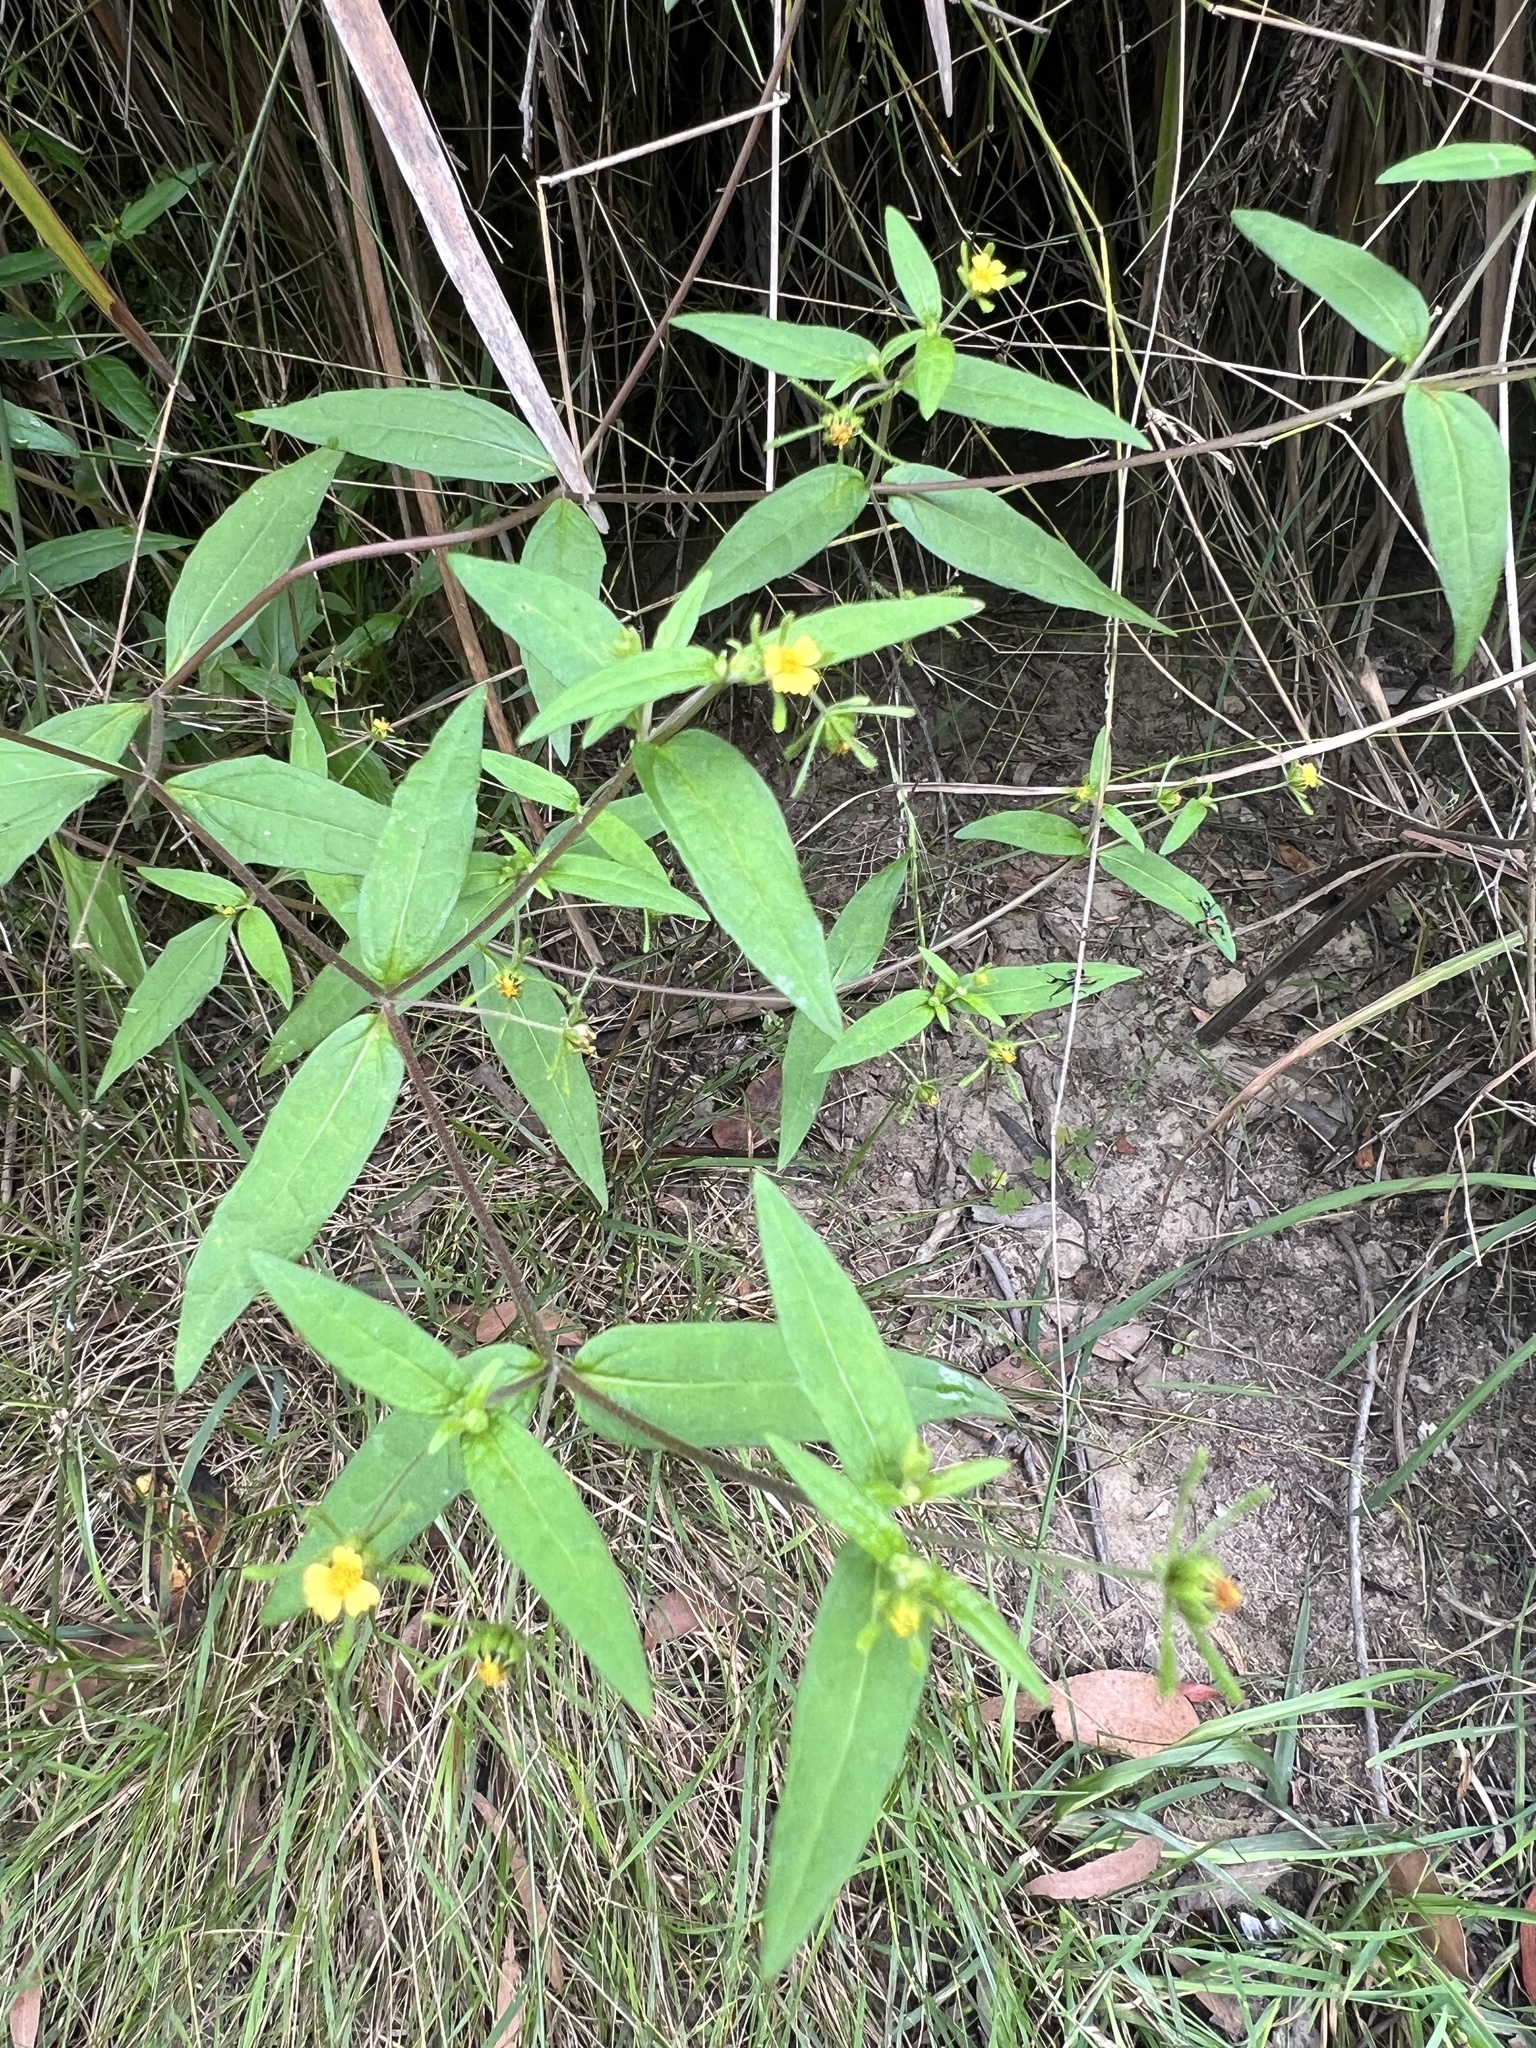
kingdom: Plantae
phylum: Tracheophyta
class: Magnoliopsida
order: Asterales
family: Asteraceae
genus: Sigesbeckia
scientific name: Sigesbeckia orientalis
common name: Eastern st paul's-wort
